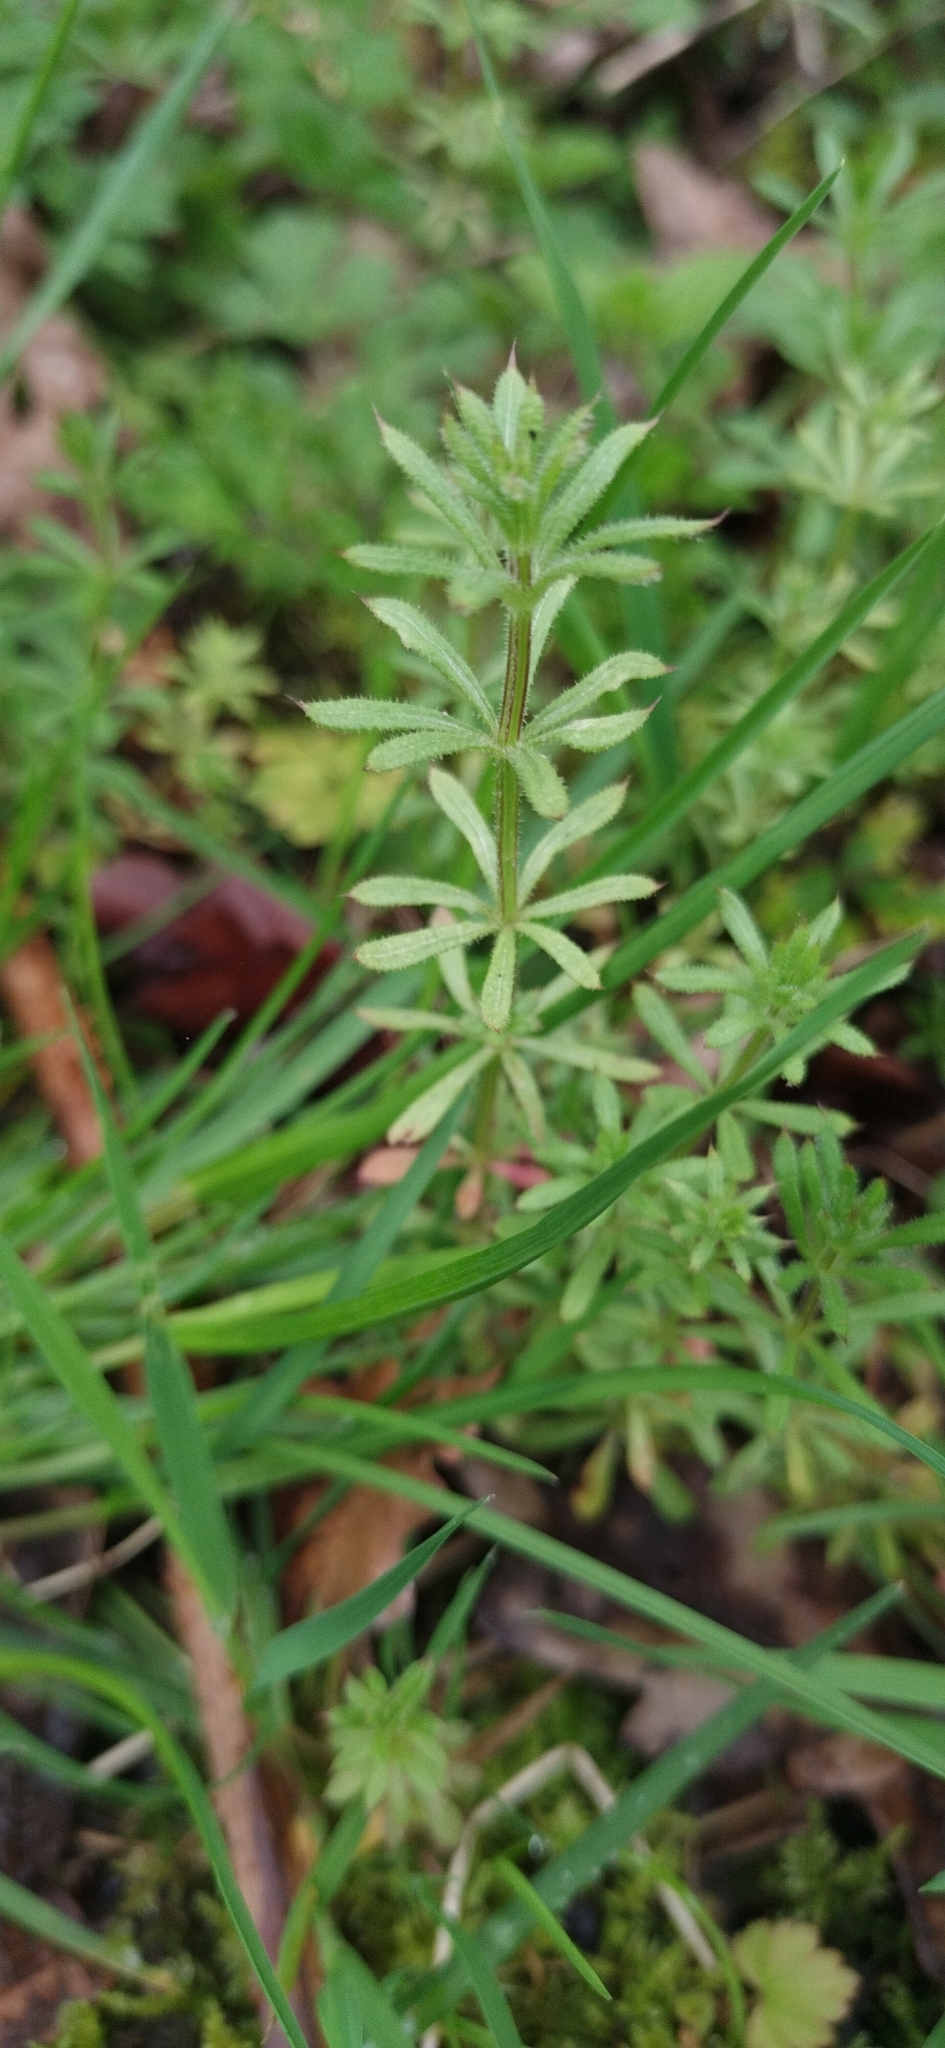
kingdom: Plantae
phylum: Tracheophyta
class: Magnoliopsida
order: Gentianales
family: Rubiaceae
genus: Galium
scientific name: Galium aparine
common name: Cleavers
